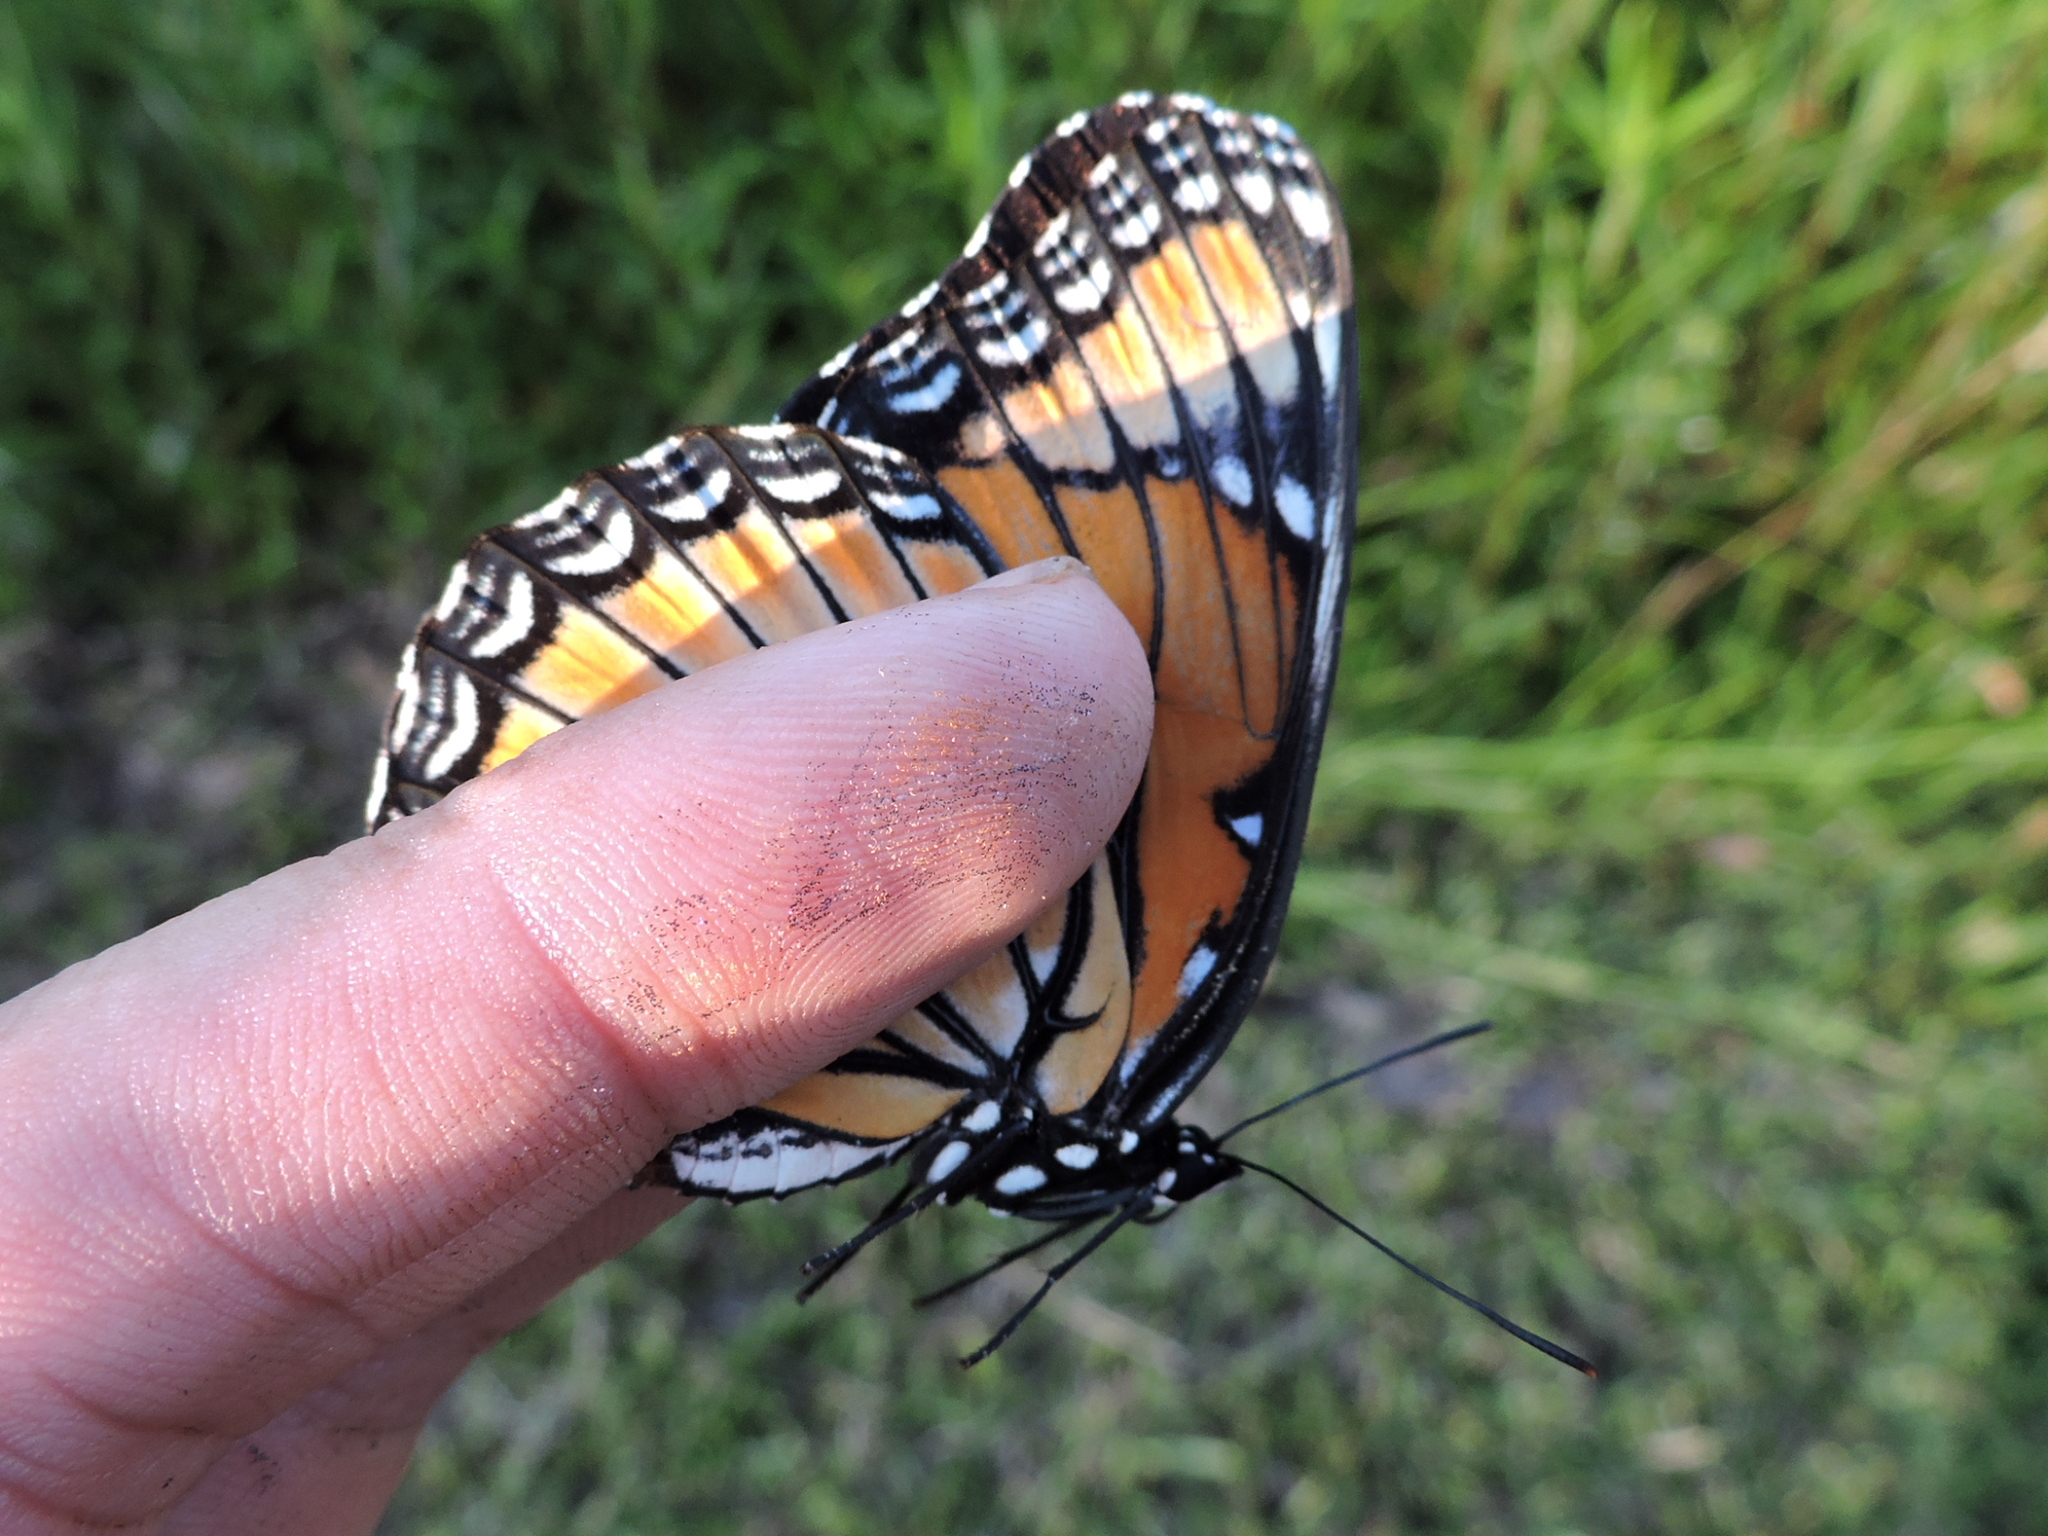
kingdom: Animalia
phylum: Arthropoda
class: Insecta
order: Lepidoptera
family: Nymphalidae
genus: Limenitis
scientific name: Limenitis archippus
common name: Viceroy
